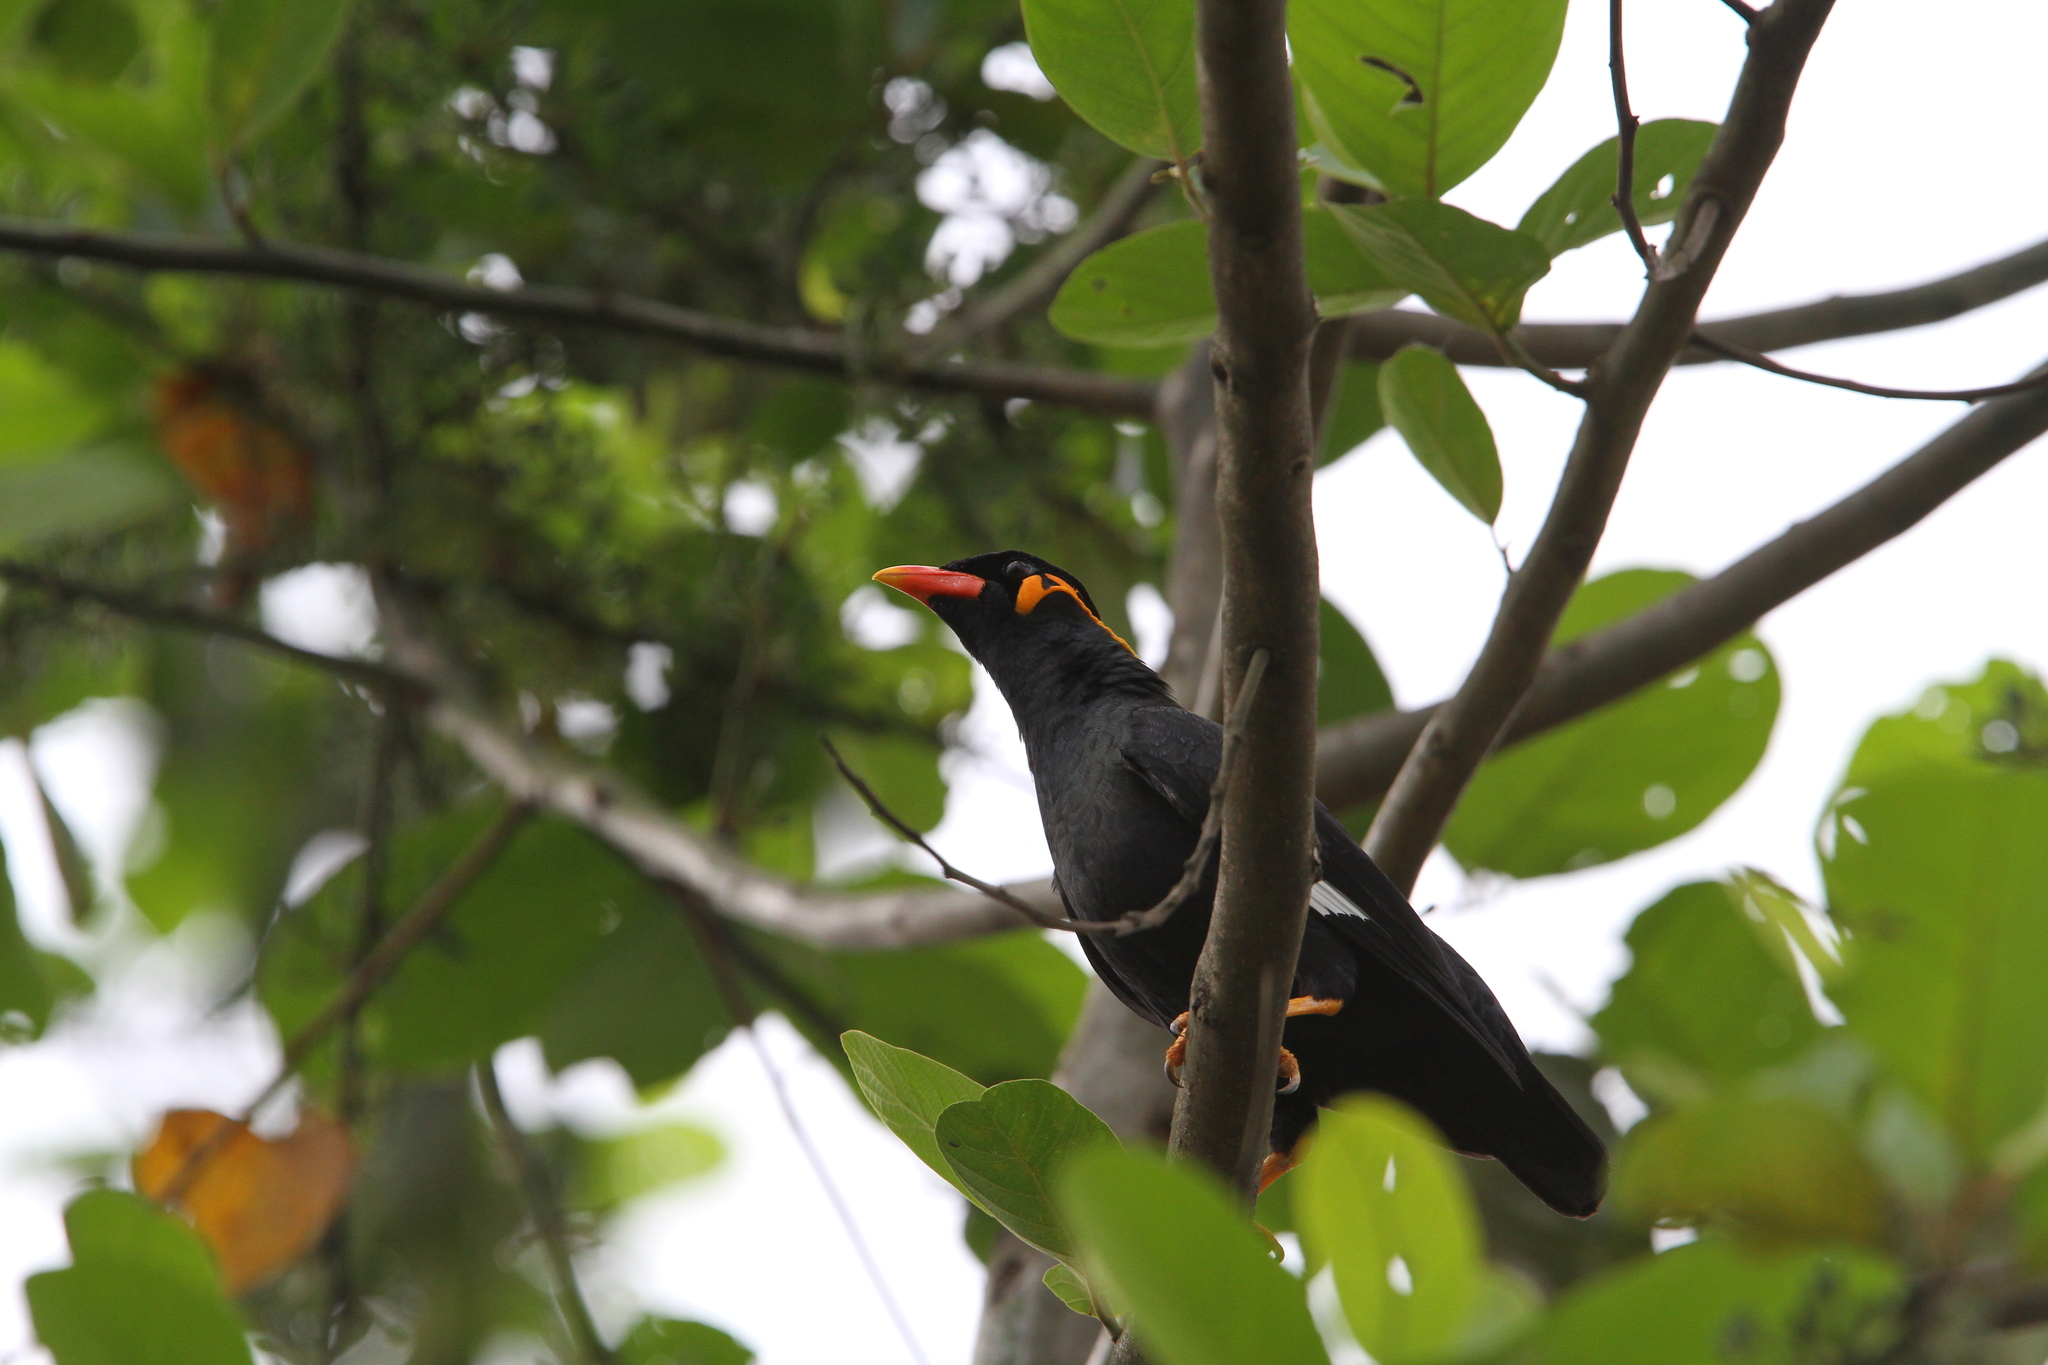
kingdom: Animalia
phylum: Chordata
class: Aves
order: Passeriformes
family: Sturnidae
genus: Gracula
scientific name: Gracula religiosa
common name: Common hill myna
